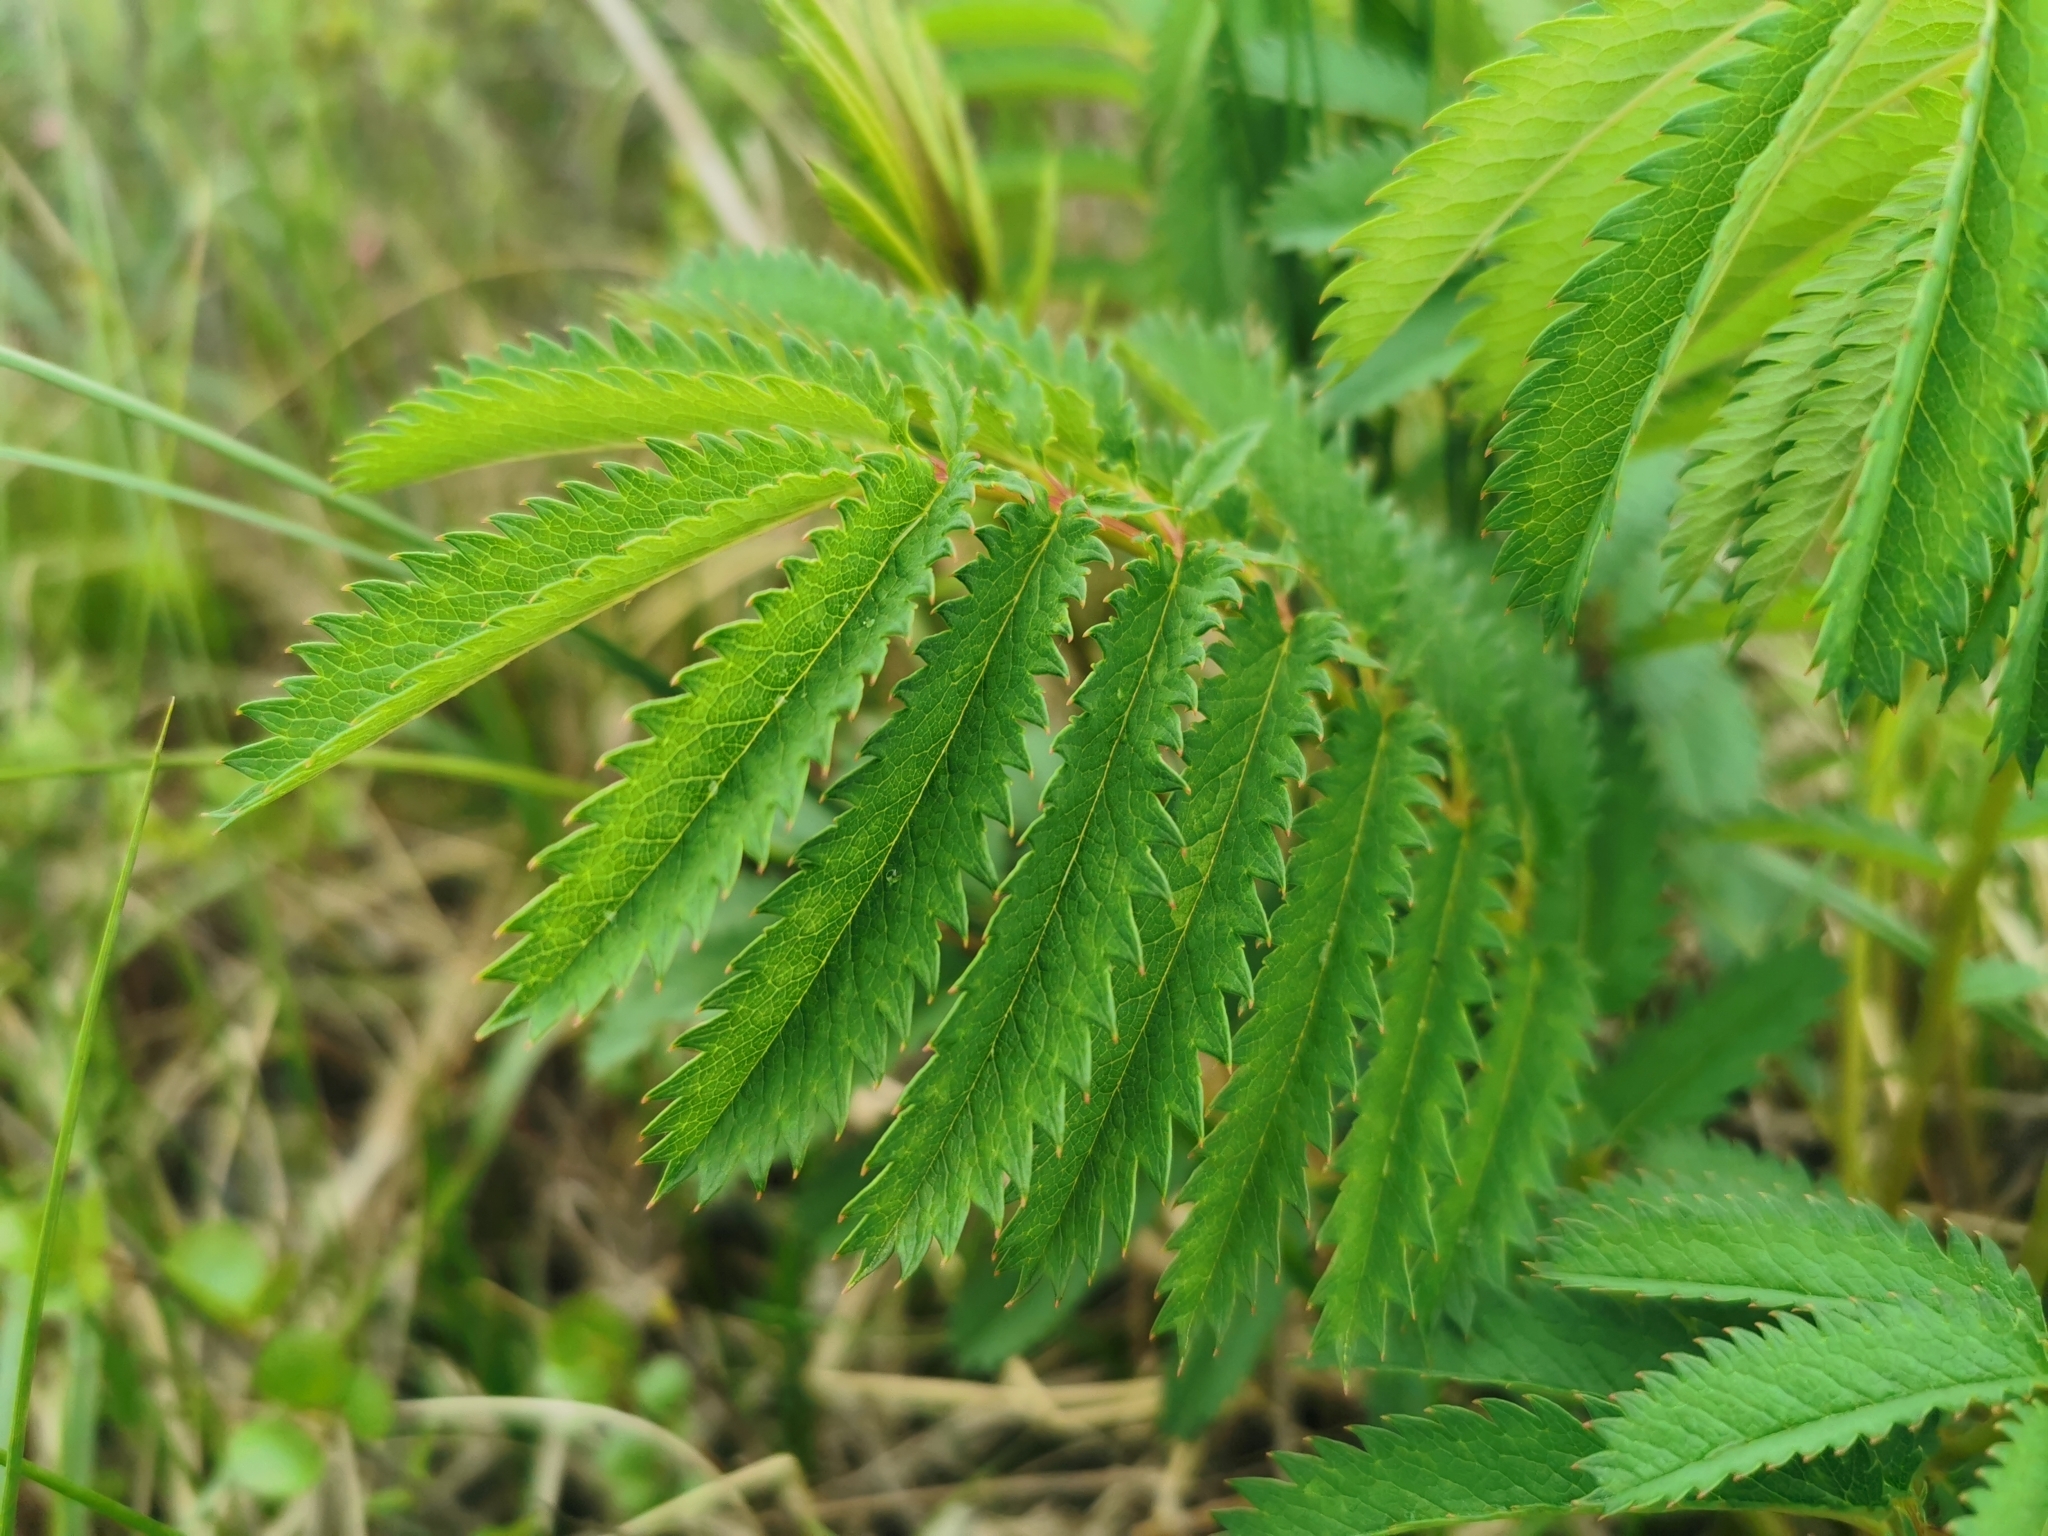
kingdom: Plantae
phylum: Tracheophyta
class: Magnoliopsida
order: Rosales
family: Rosaceae
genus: Poterium
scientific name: Poterium tenuifolium
